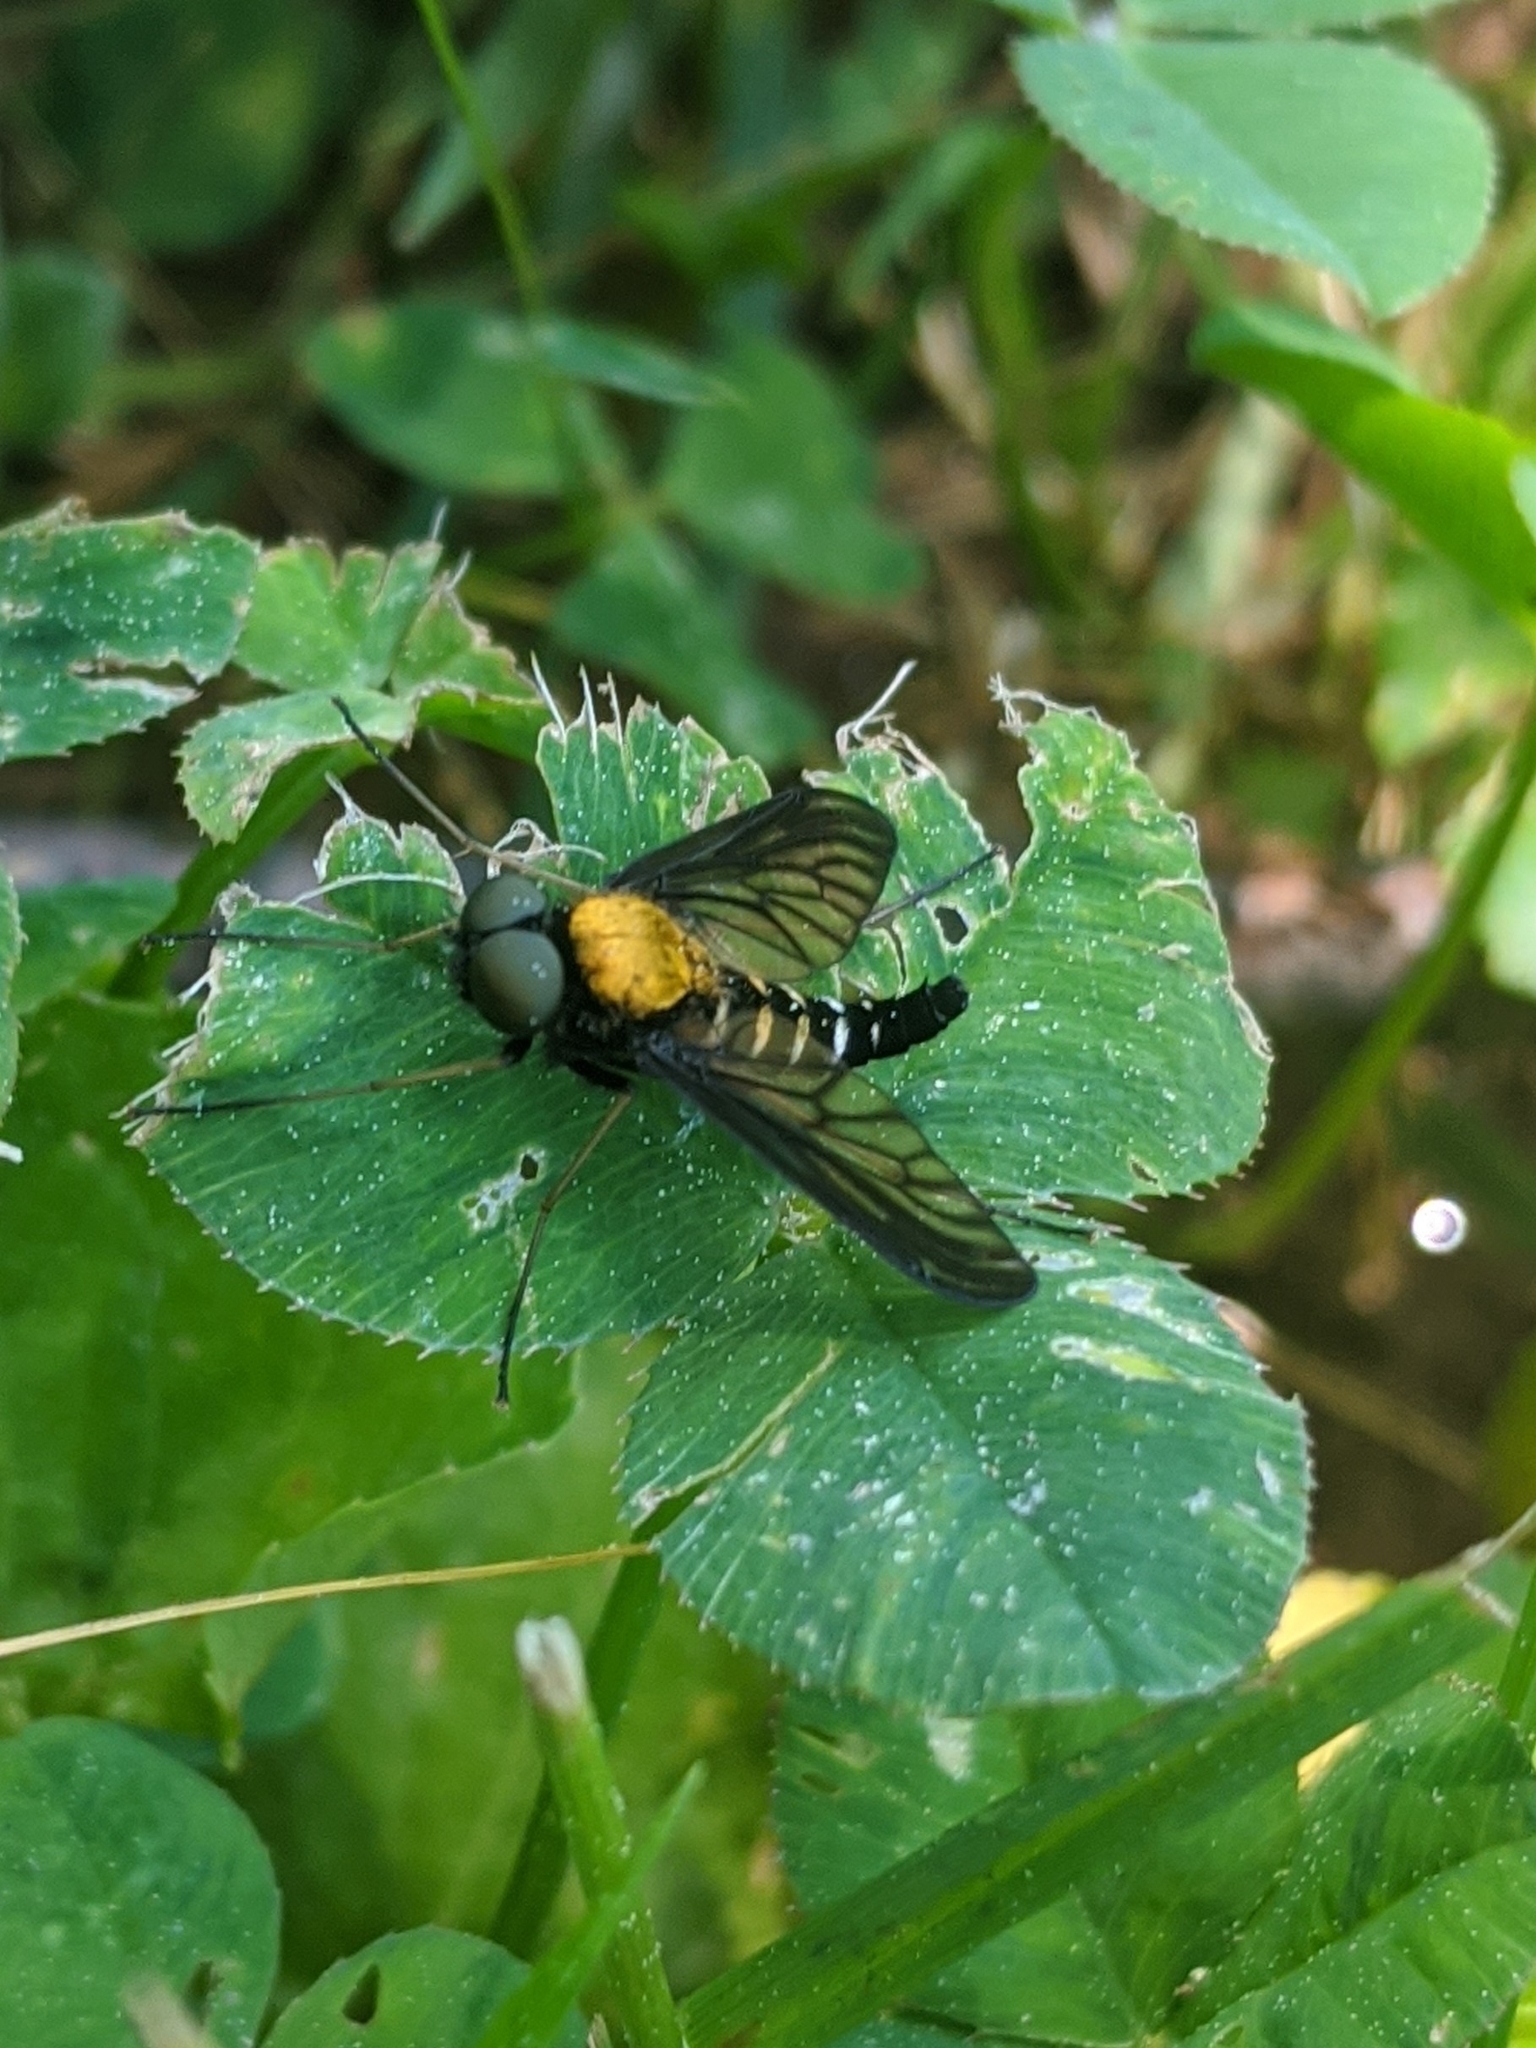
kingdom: Animalia
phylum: Arthropoda
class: Insecta
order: Diptera
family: Rhagionidae
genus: Chrysopilus
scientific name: Chrysopilus thoracicus
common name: Golden-backed snipe fly
